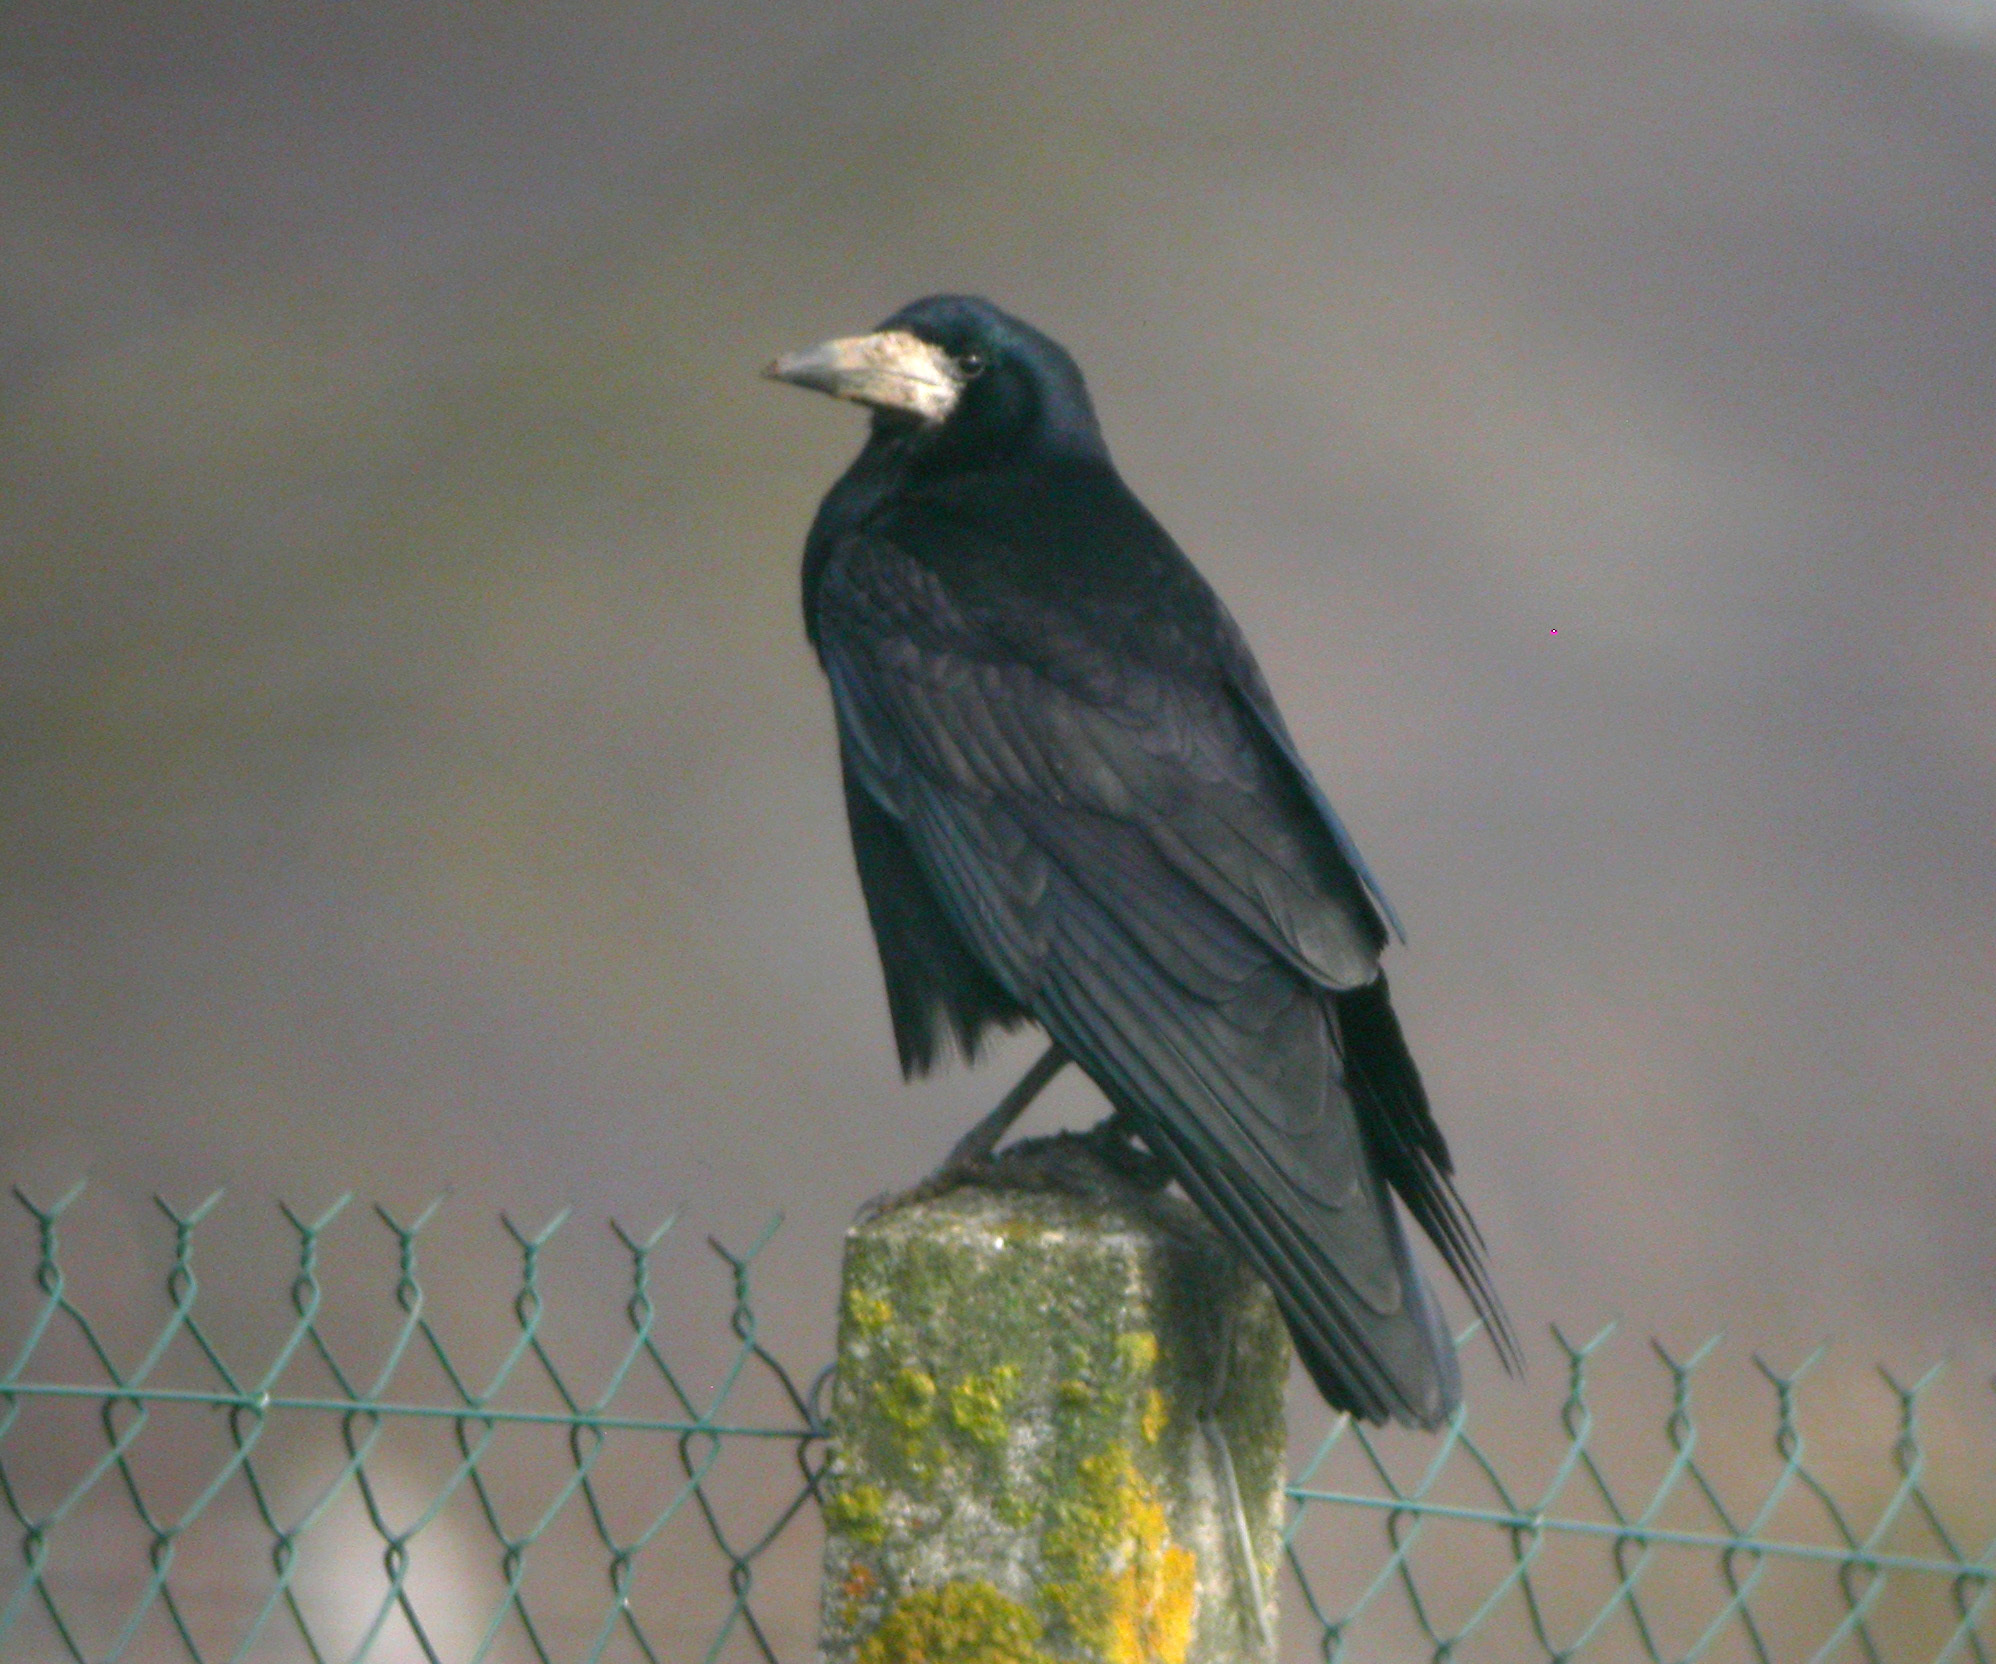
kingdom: Animalia
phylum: Chordata
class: Aves
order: Passeriformes
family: Corvidae
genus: Corvus
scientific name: Corvus frugilegus
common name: Rook
